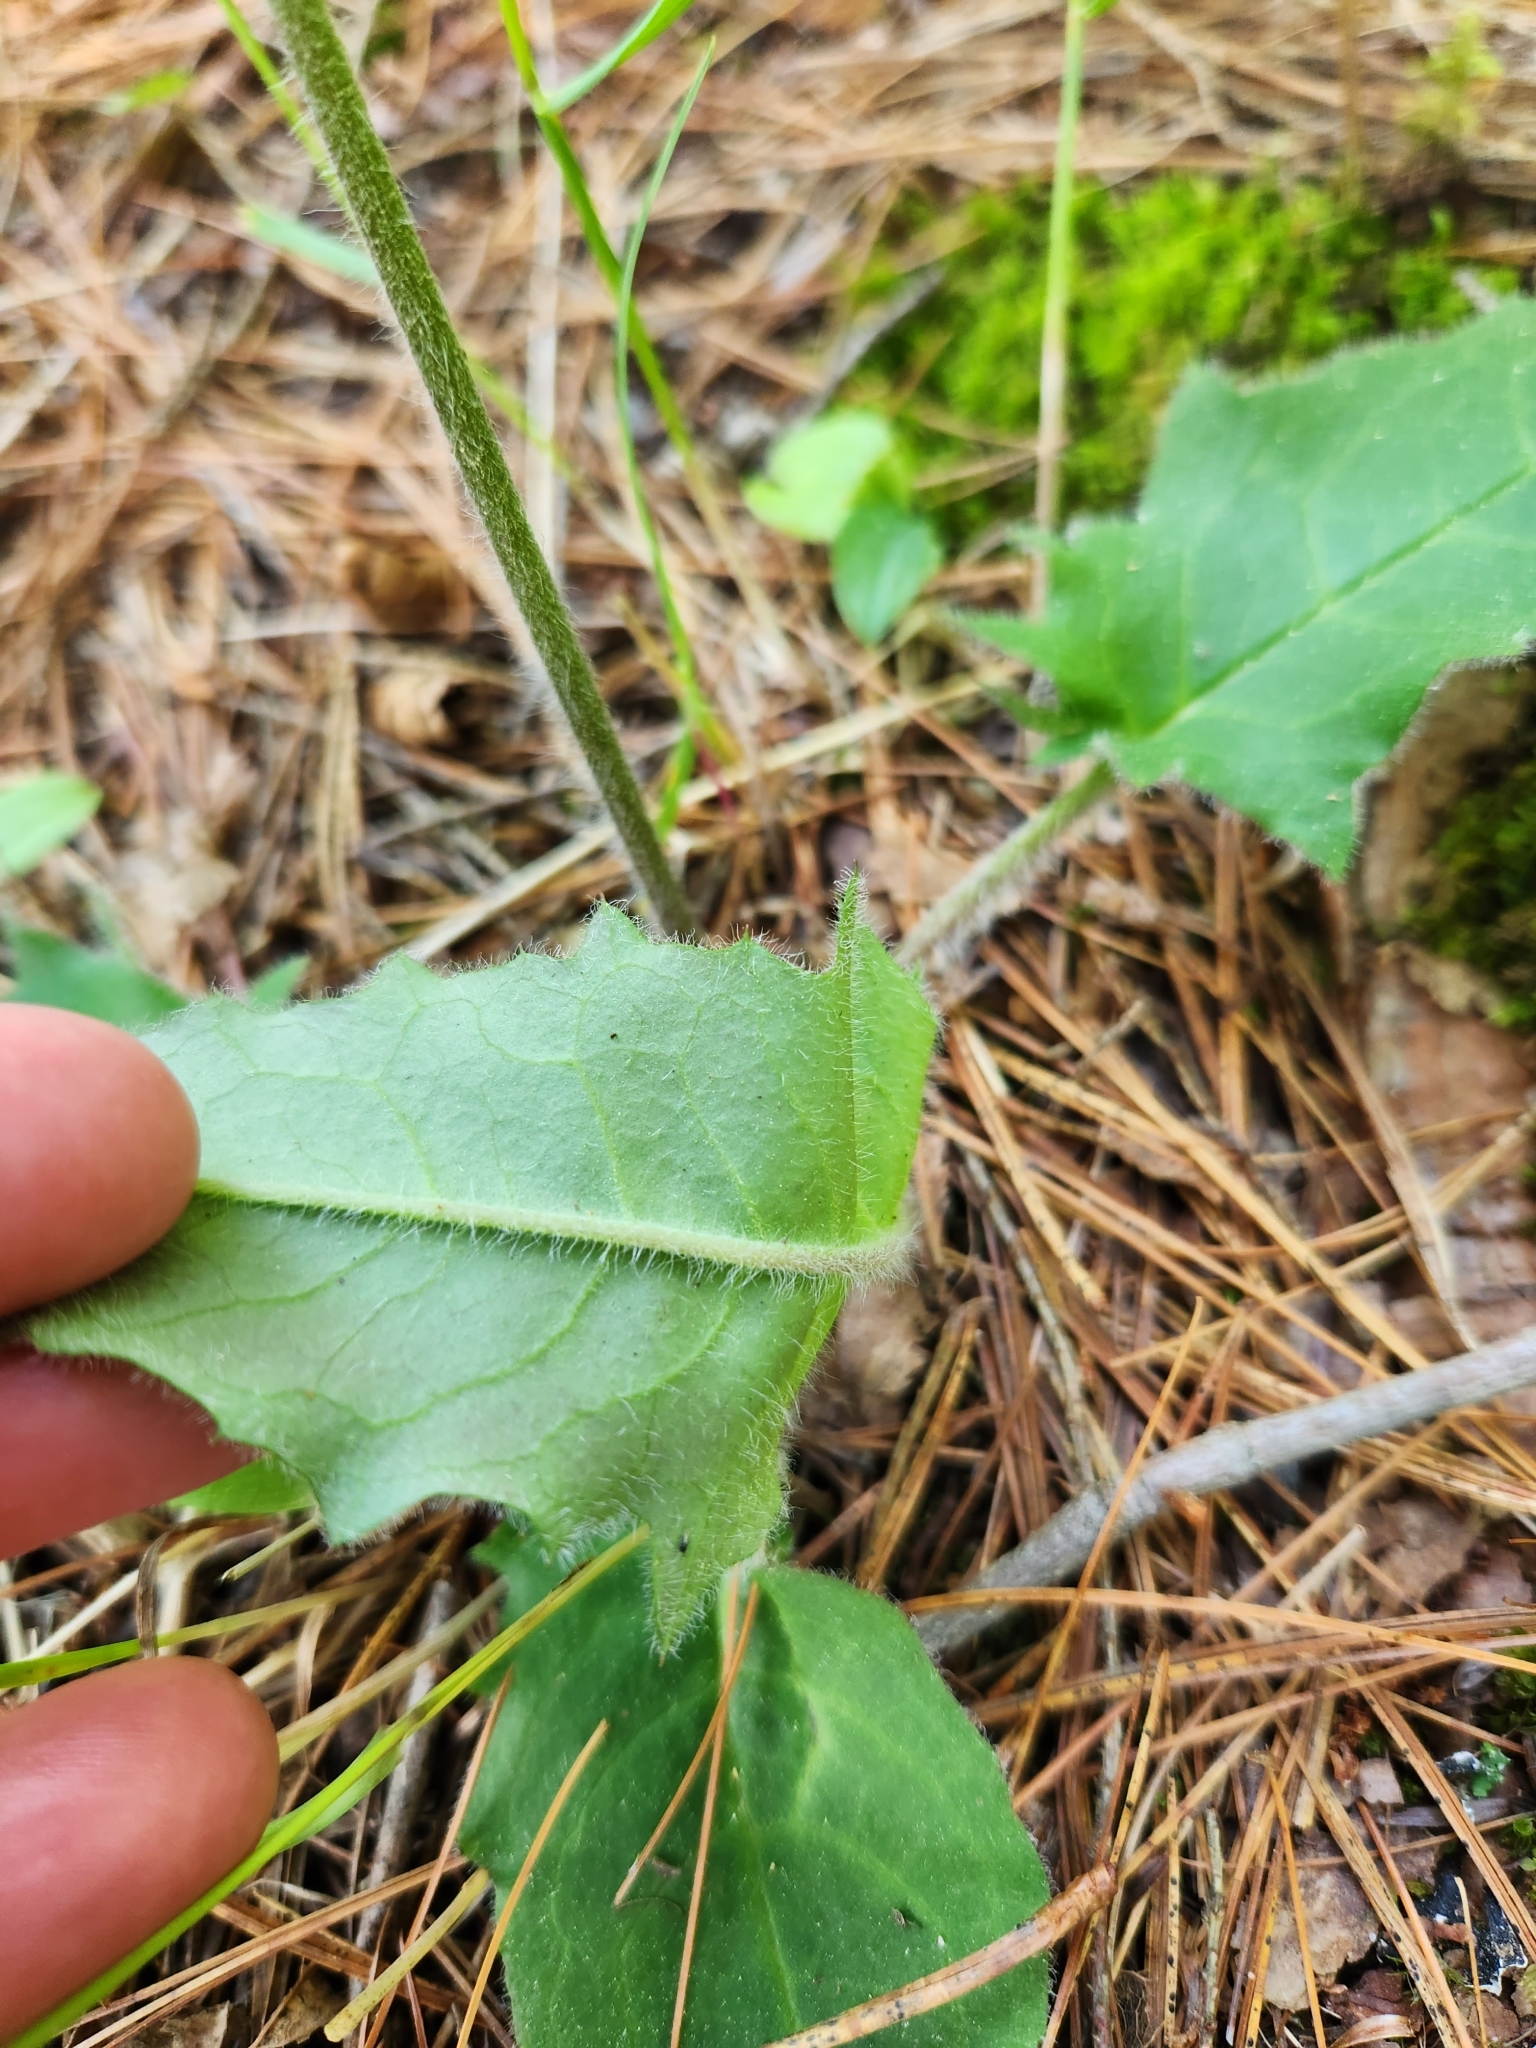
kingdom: Plantae
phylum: Tracheophyta
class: Magnoliopsida
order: Asterales
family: Asteraceae
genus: Hieracium
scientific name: Hieracium murorum
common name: Wall hawkweed
